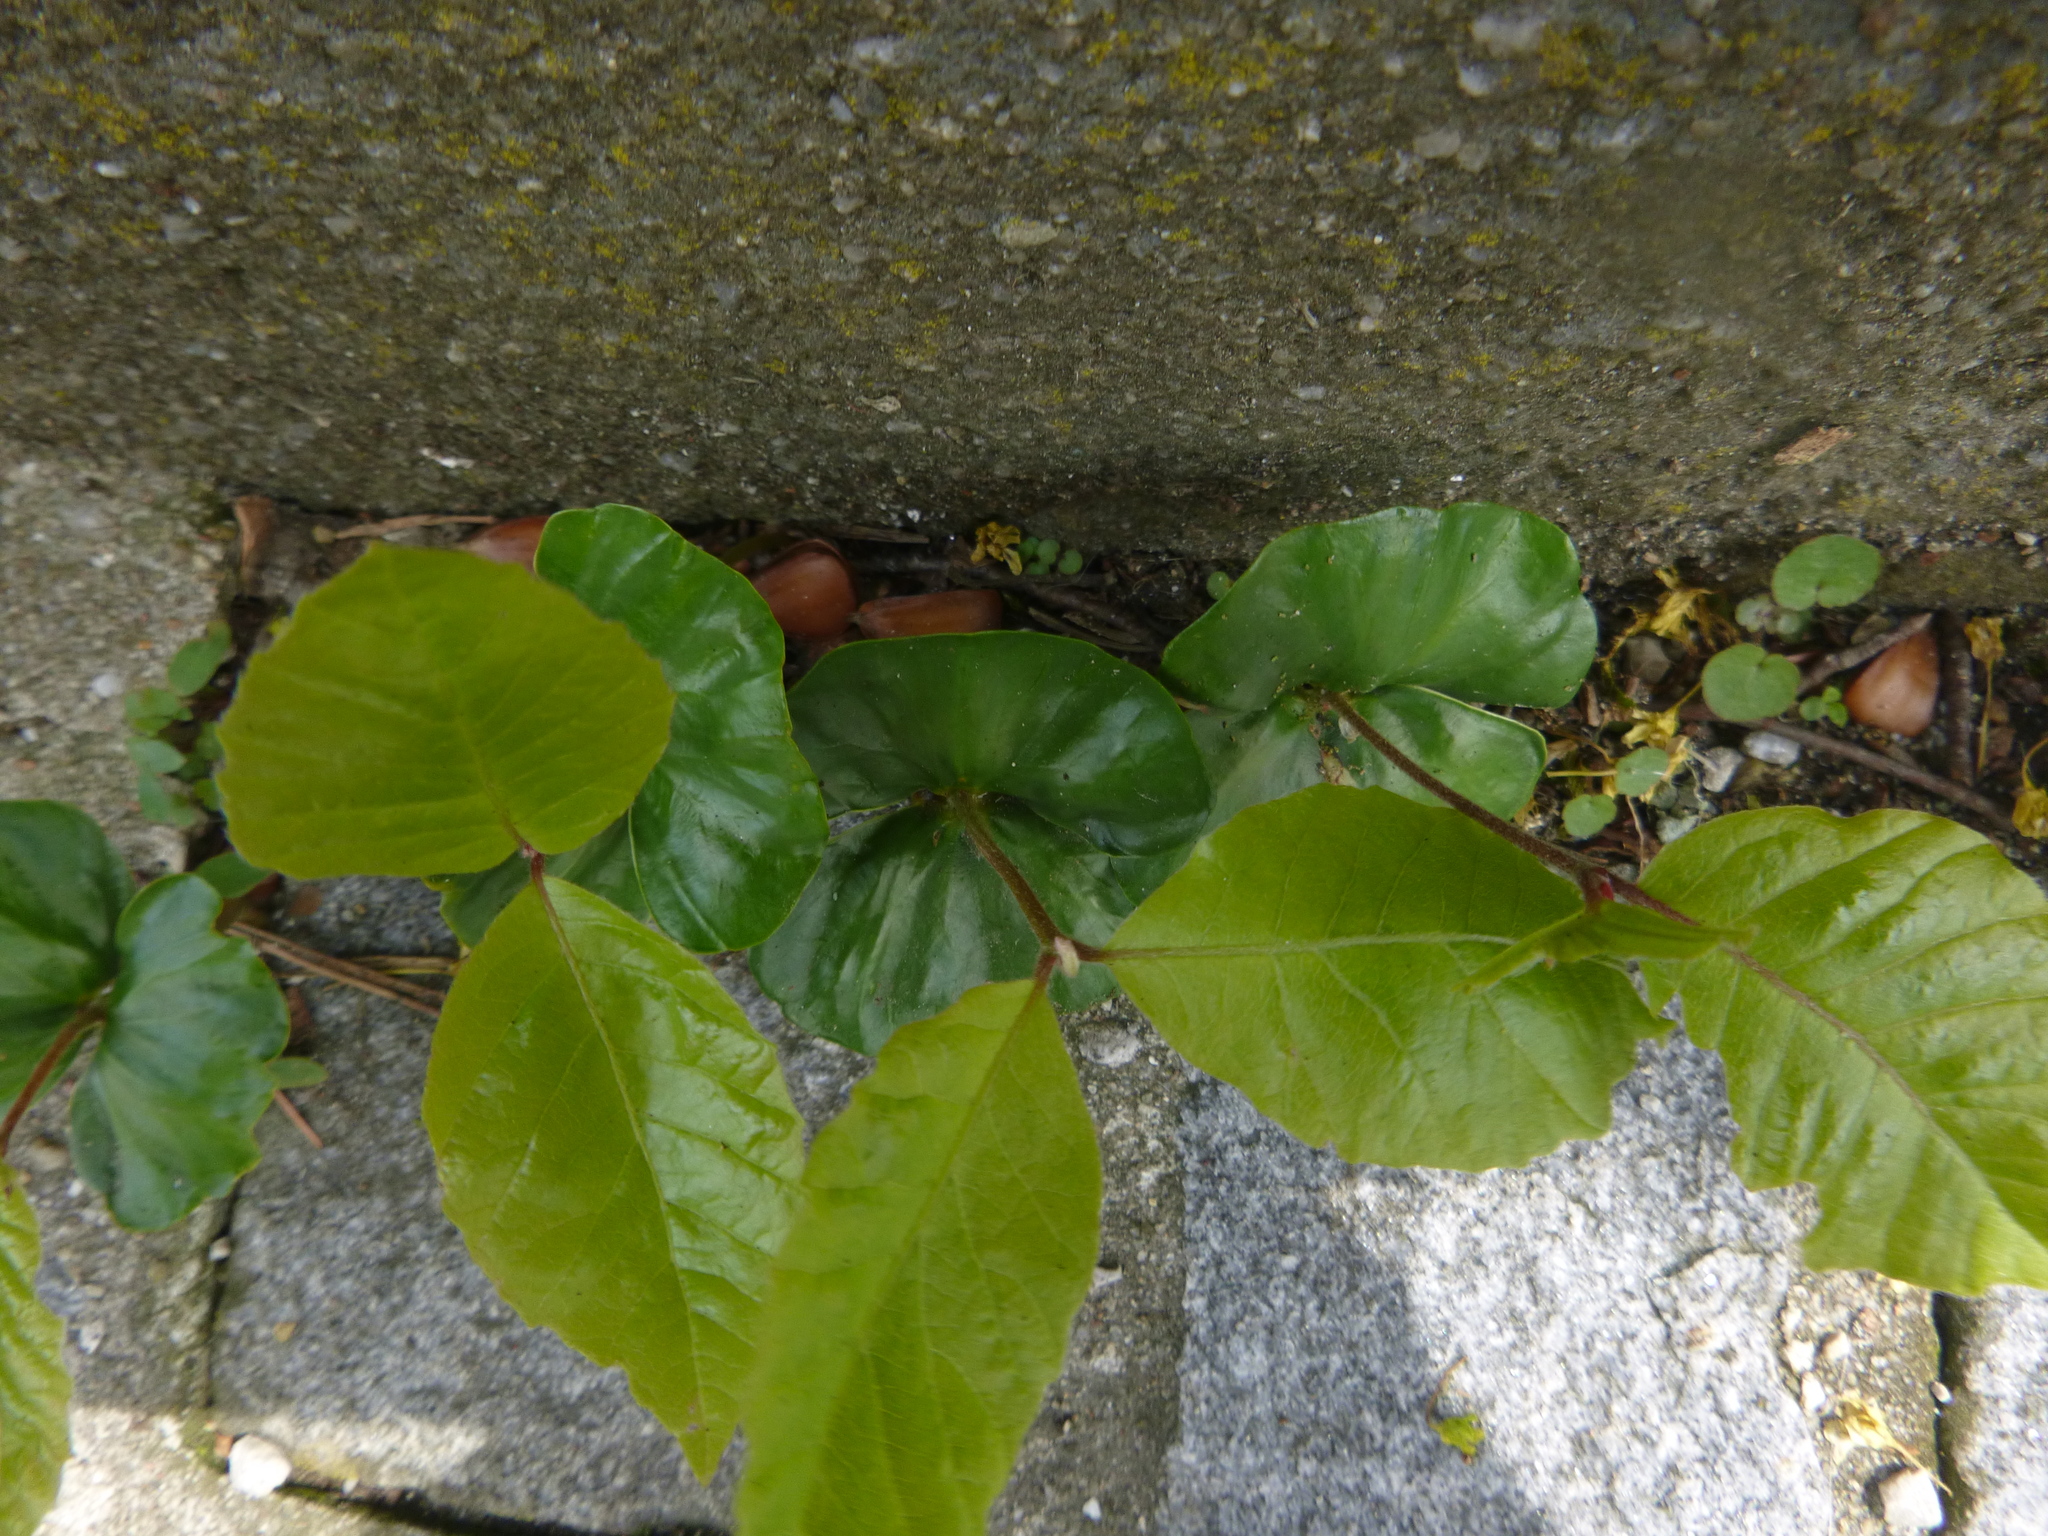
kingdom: Plantae
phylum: Tracheophyta
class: Magnoliopsida
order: Fagales
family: Fagaceae
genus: Fagus
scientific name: Fagus sylvatica
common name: Beech
